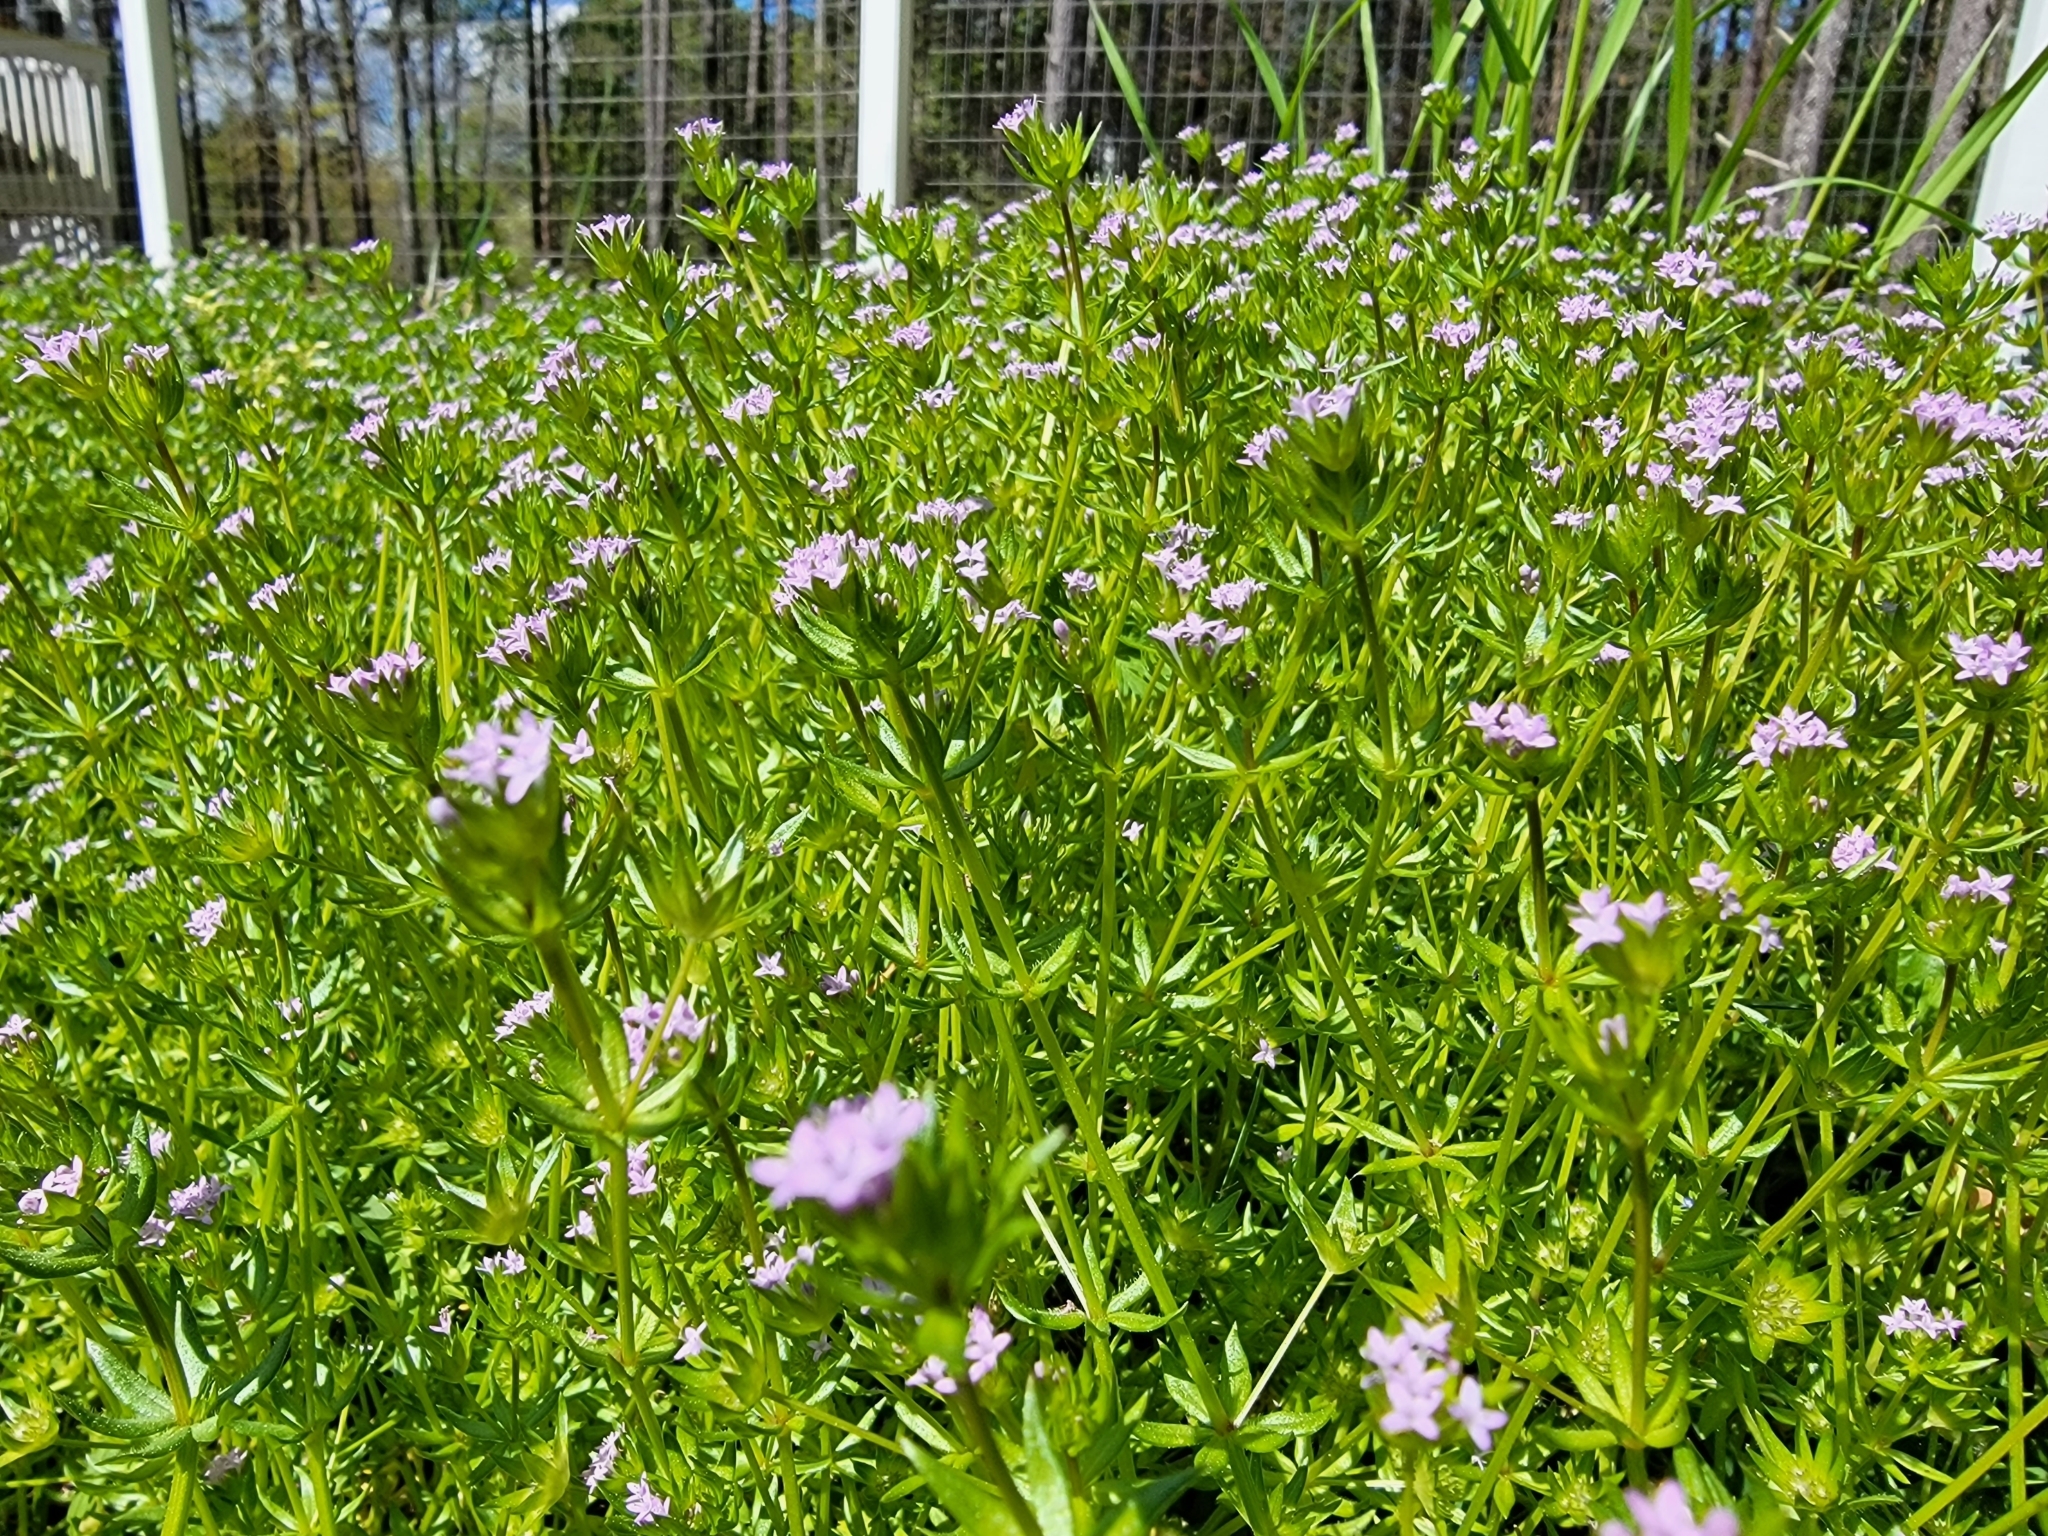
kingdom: Plantae
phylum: Tracheophyta
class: Magnoliopsida
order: Gentianales
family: Rubiaceae
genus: Sherardia
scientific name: Sherardia arvensis
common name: Field madder
